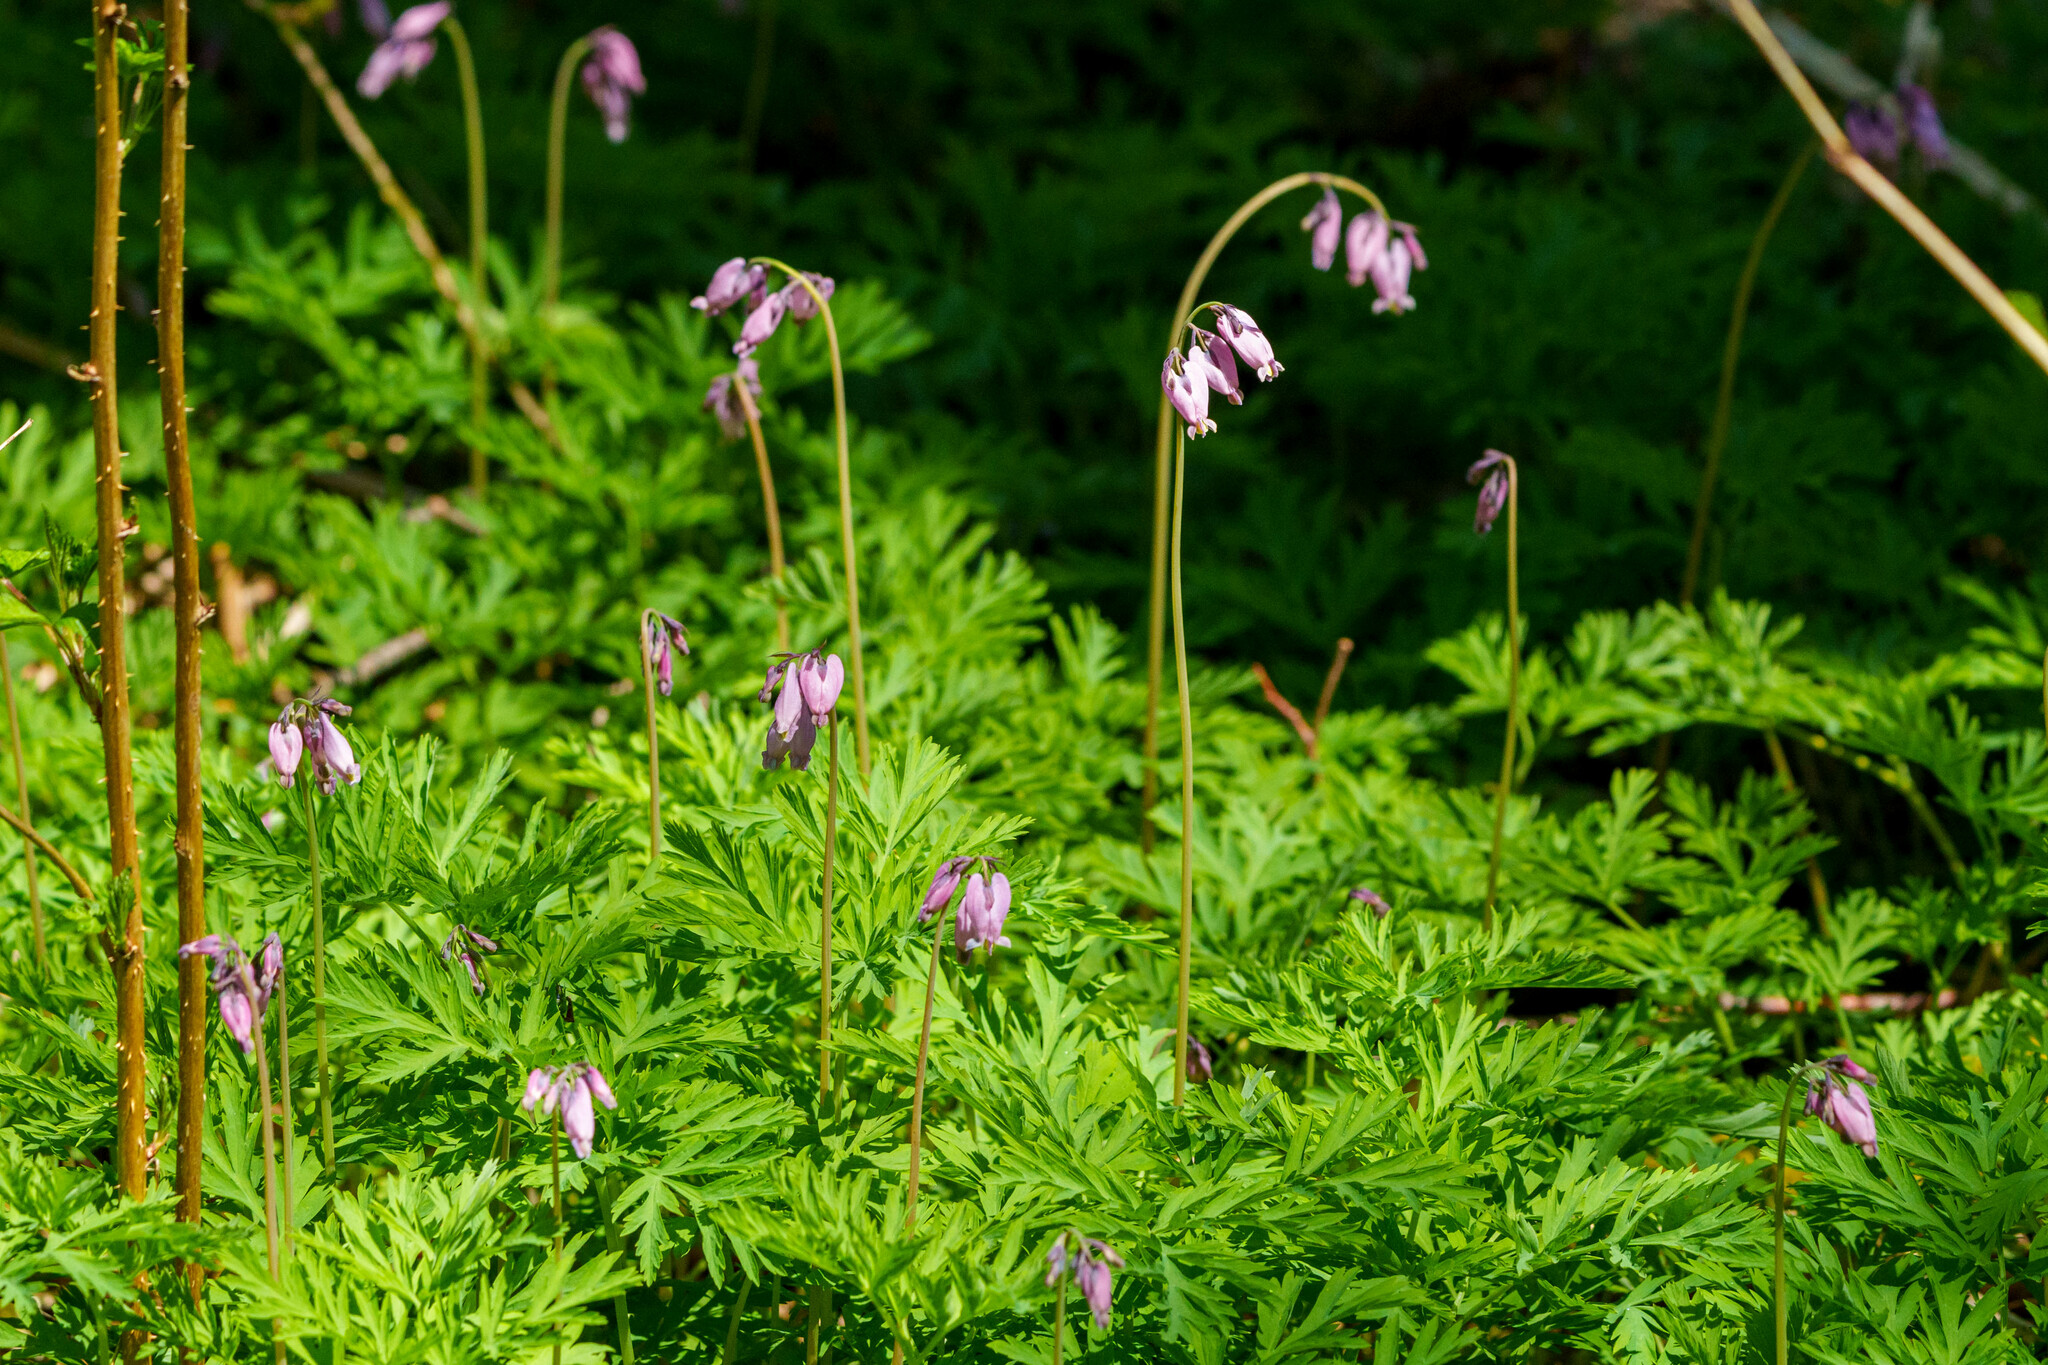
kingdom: Plantae
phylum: Tracheophyta
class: Magnoliopsida
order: Ranunculales
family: Papaveraceae
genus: Dicentra
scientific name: Dicentra formosa
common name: Bleeding-heart
